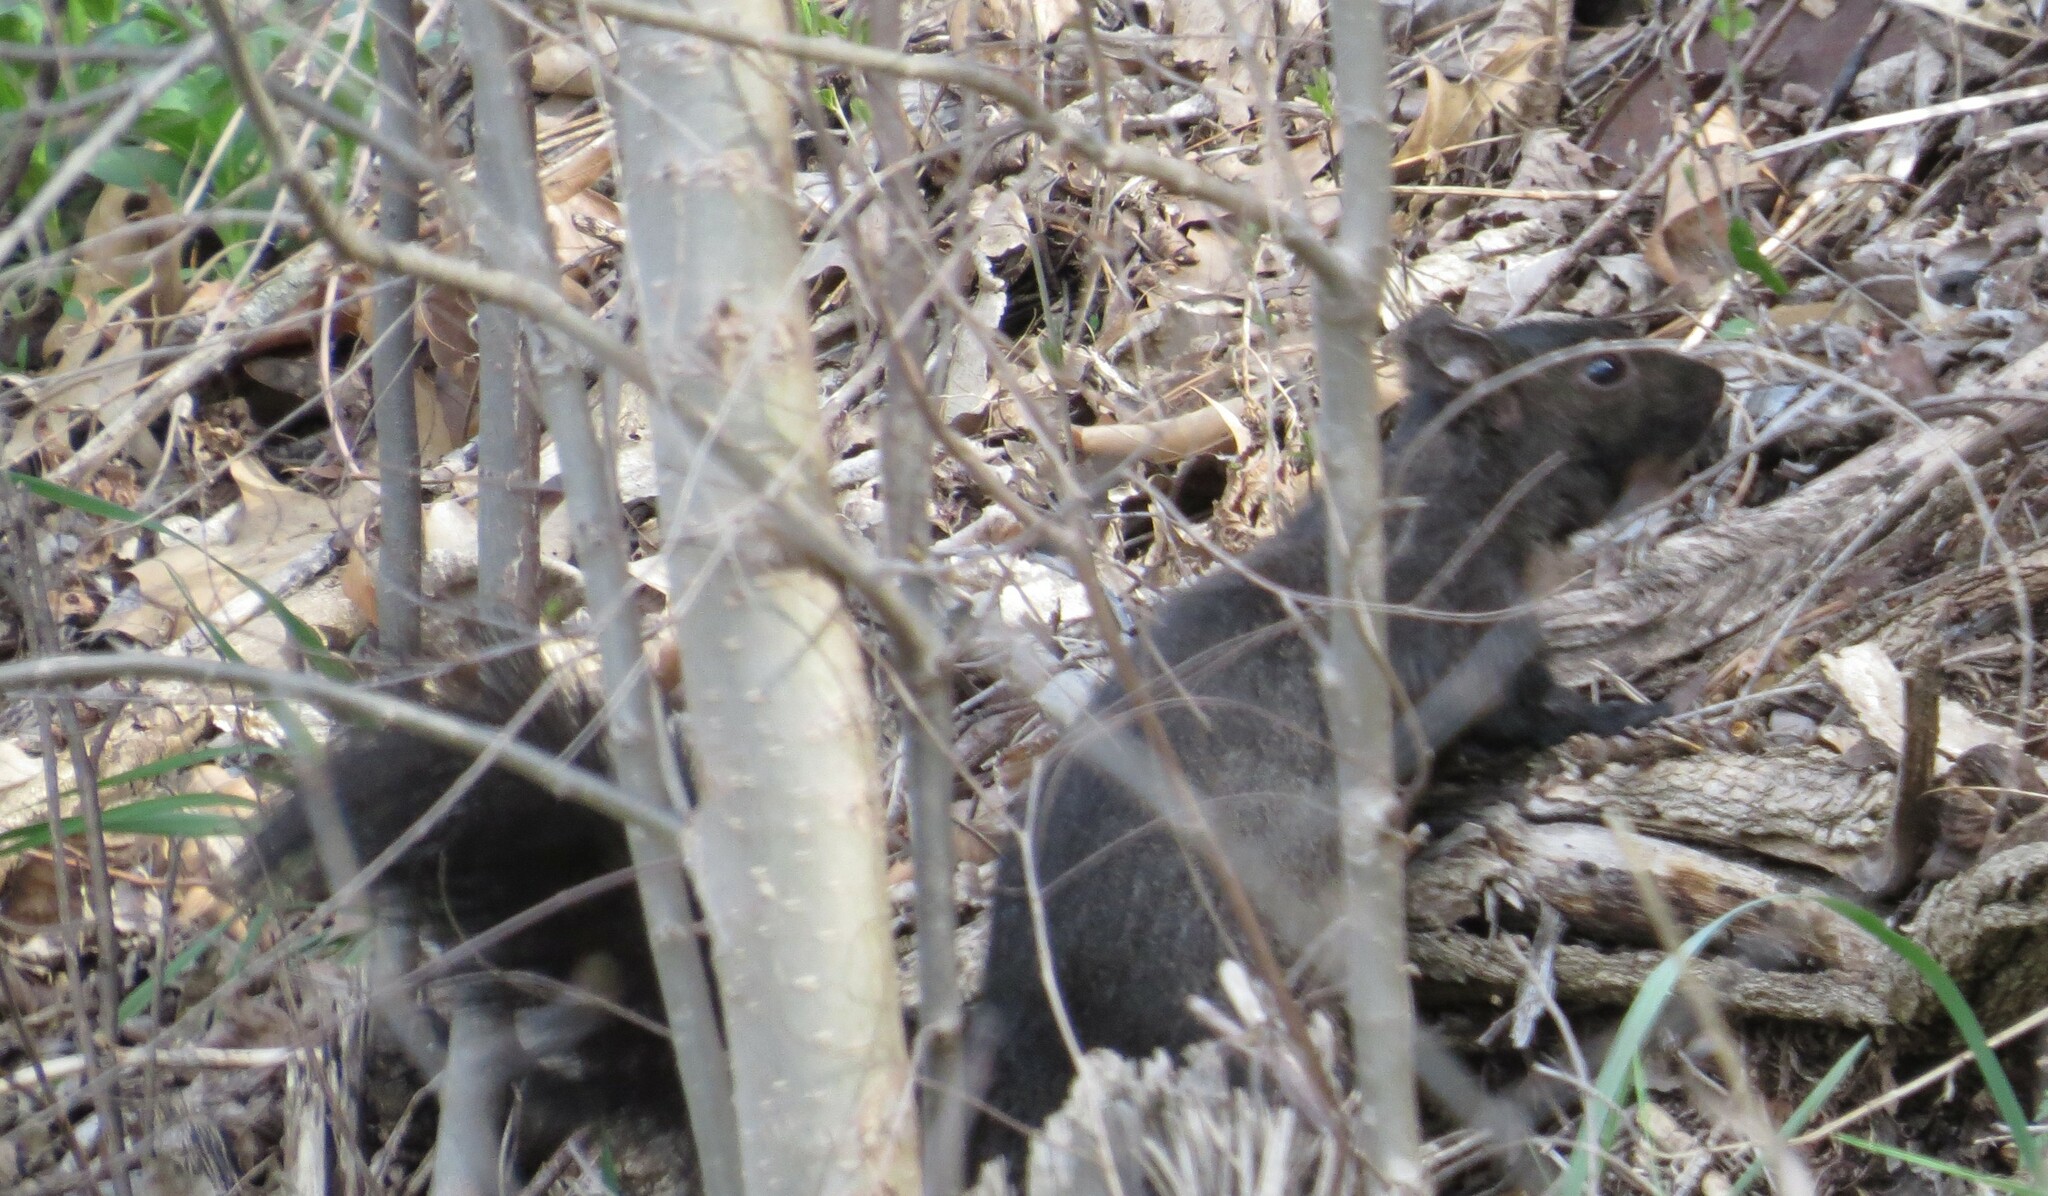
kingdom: Animalia
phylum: Chordata
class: Mammalia
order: Rodentia
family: Sciuridae
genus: Sciurus
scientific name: Sciurus carolinensis
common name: Eastern gray squirrel
